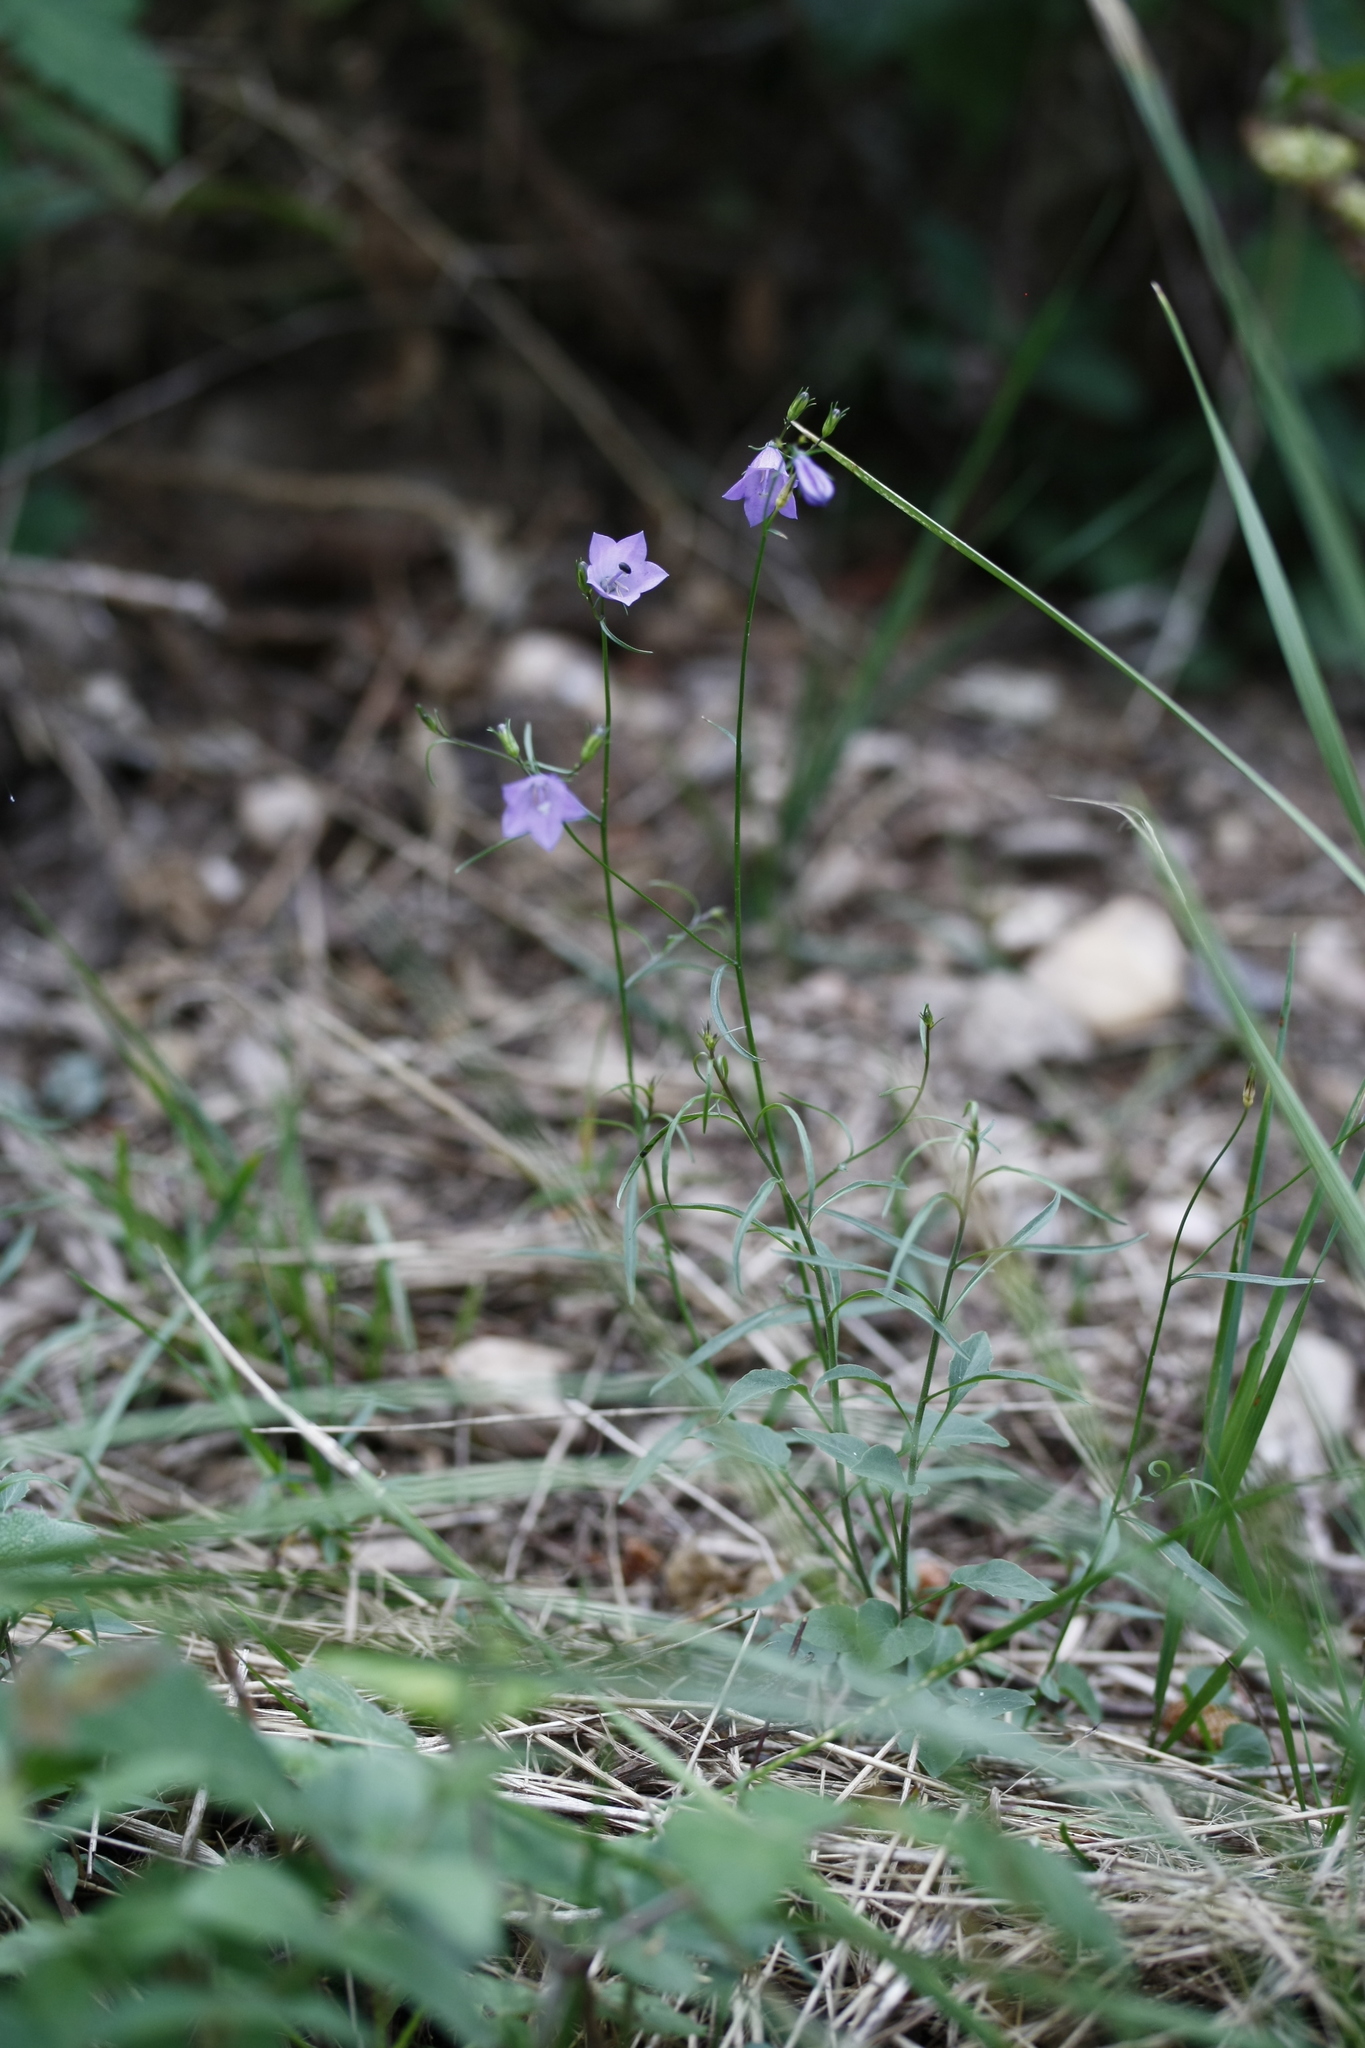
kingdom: Plantae
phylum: Tracheophyta
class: Magnoliopsida
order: Asterales
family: Campanulaceae
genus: Campanula
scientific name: Campanula rotundifolia
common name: Harebell
